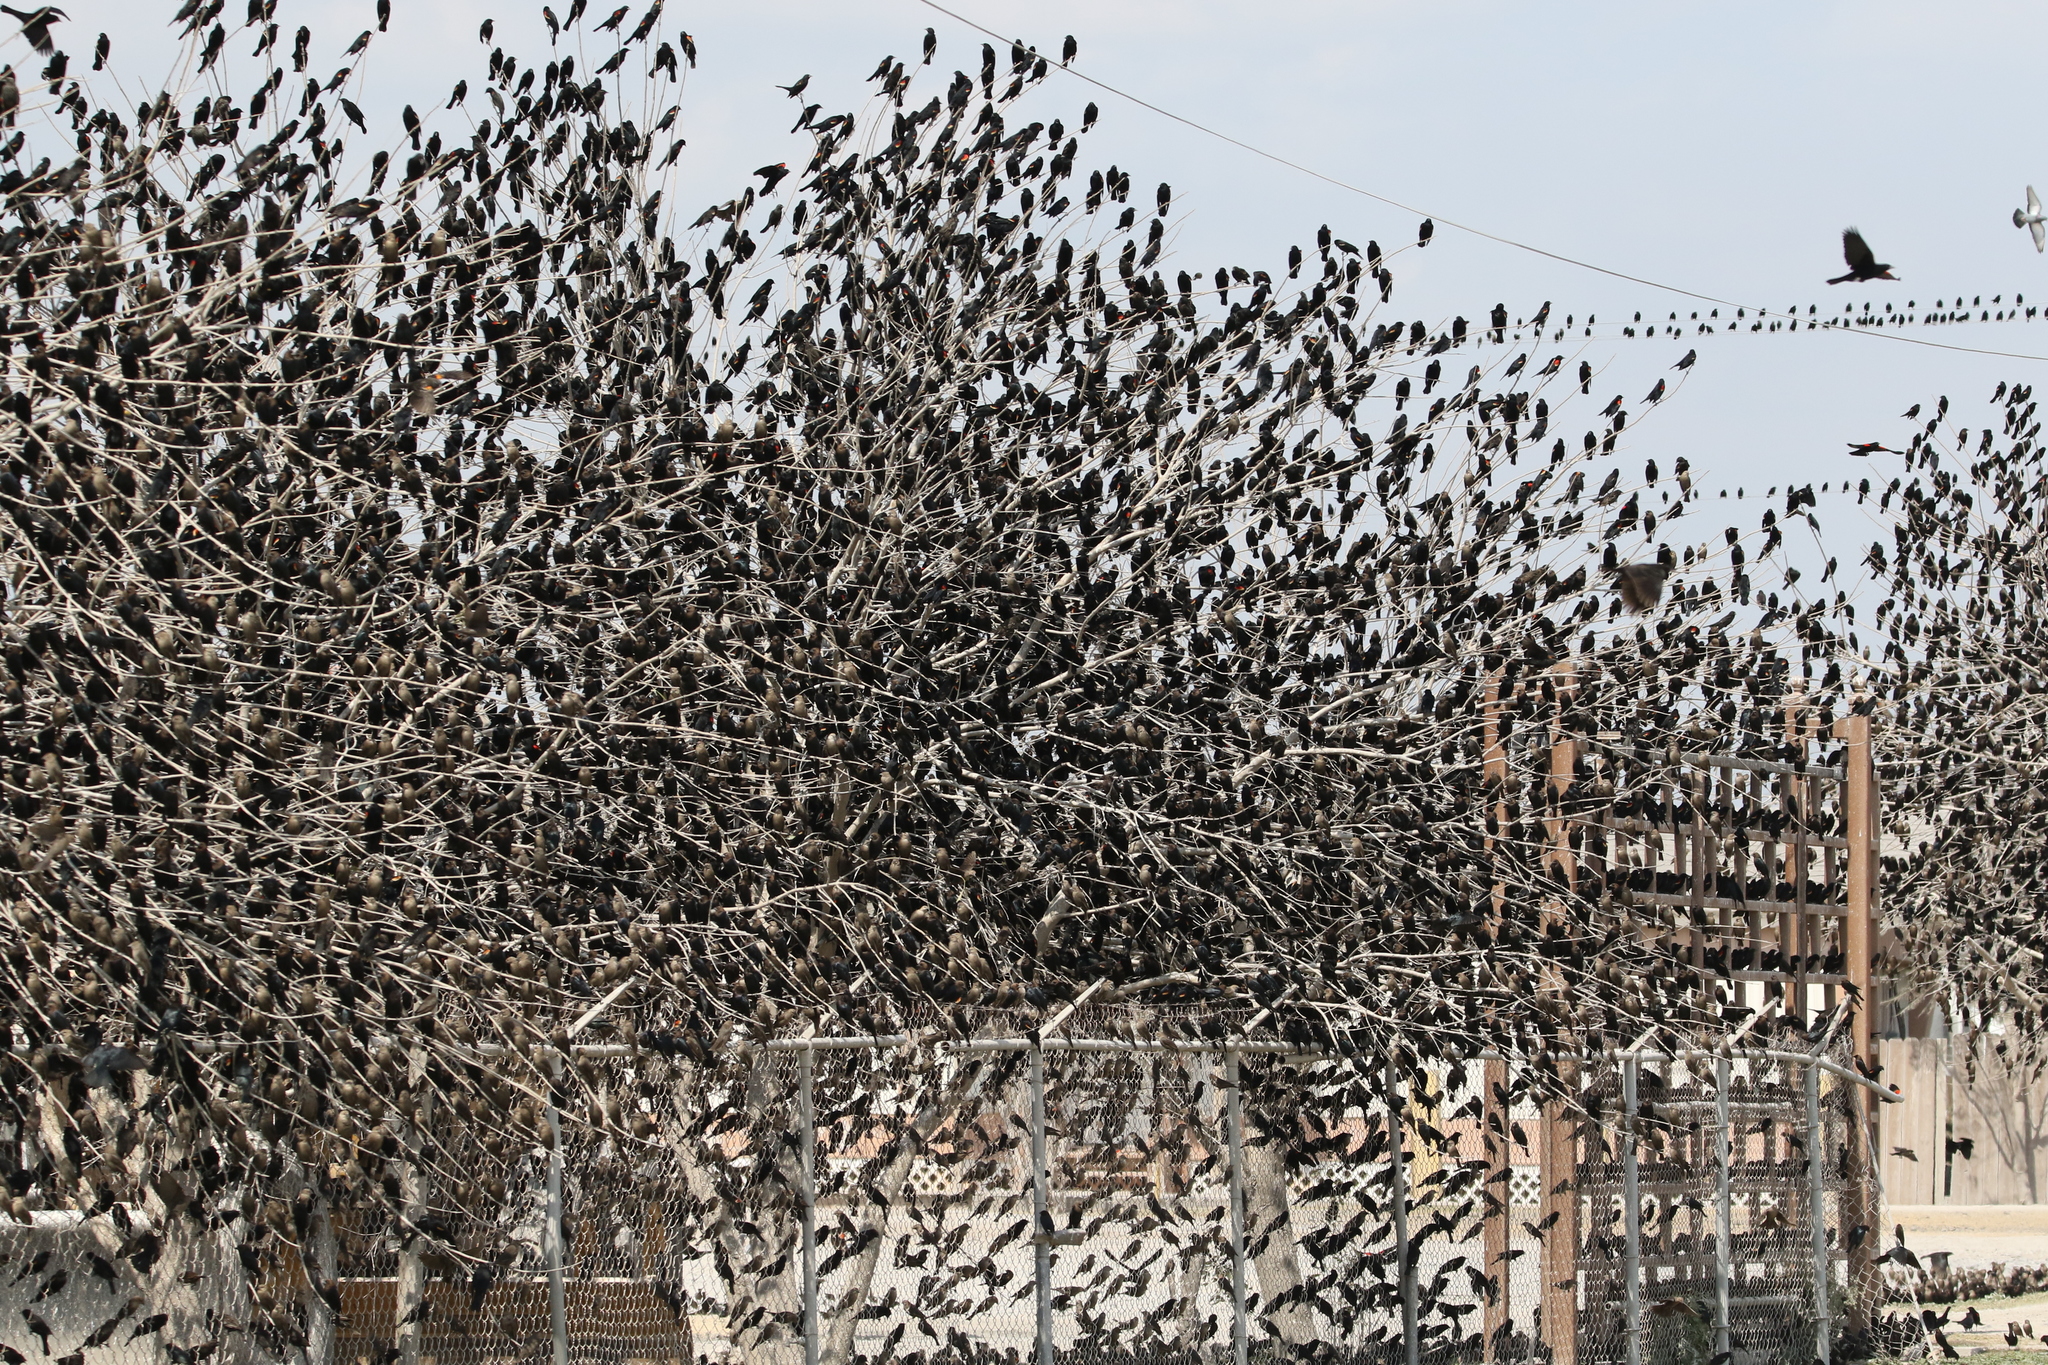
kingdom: Animalia
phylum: Chordata
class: Aves
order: Passeriformes
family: Icteridae
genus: Molothrus
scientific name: Molothrus ater
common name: Brown-headed cowbird
